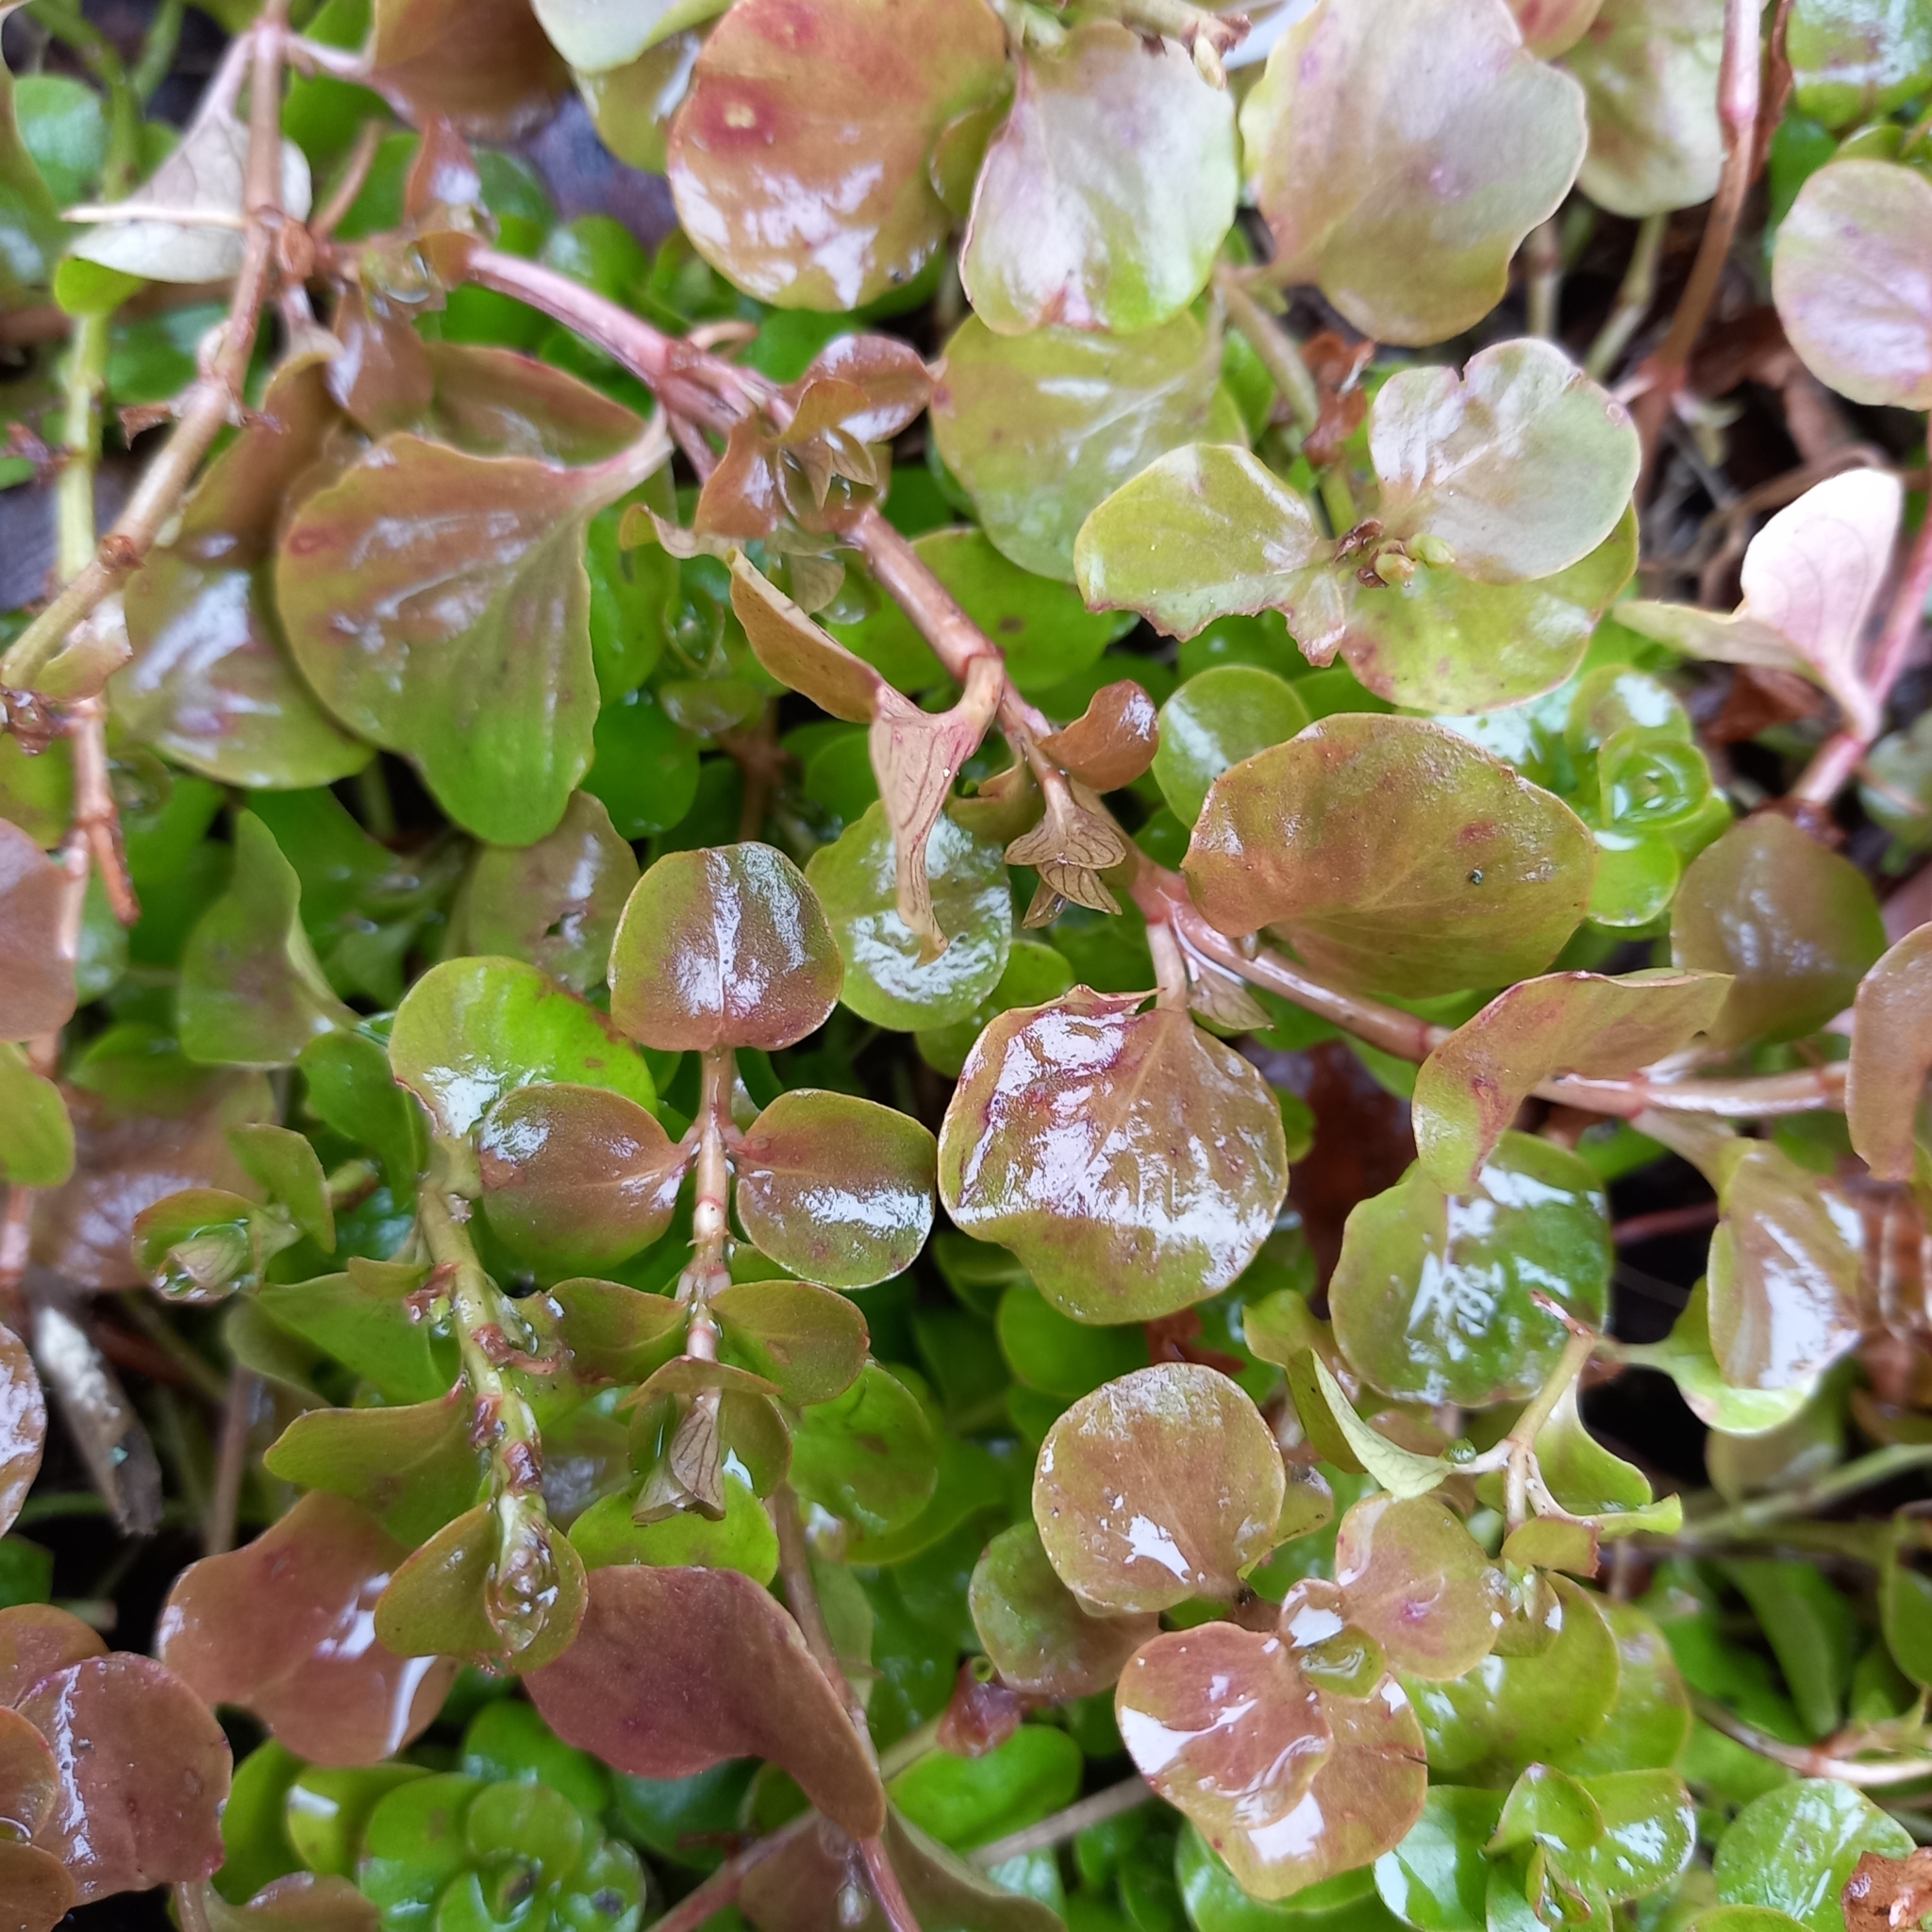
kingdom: Plantae
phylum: Tracheophyta
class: Magnoliopsida
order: Ericales
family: Primulaceae
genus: Lysimachia
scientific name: Lysimachia nummularia
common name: Moneywort
